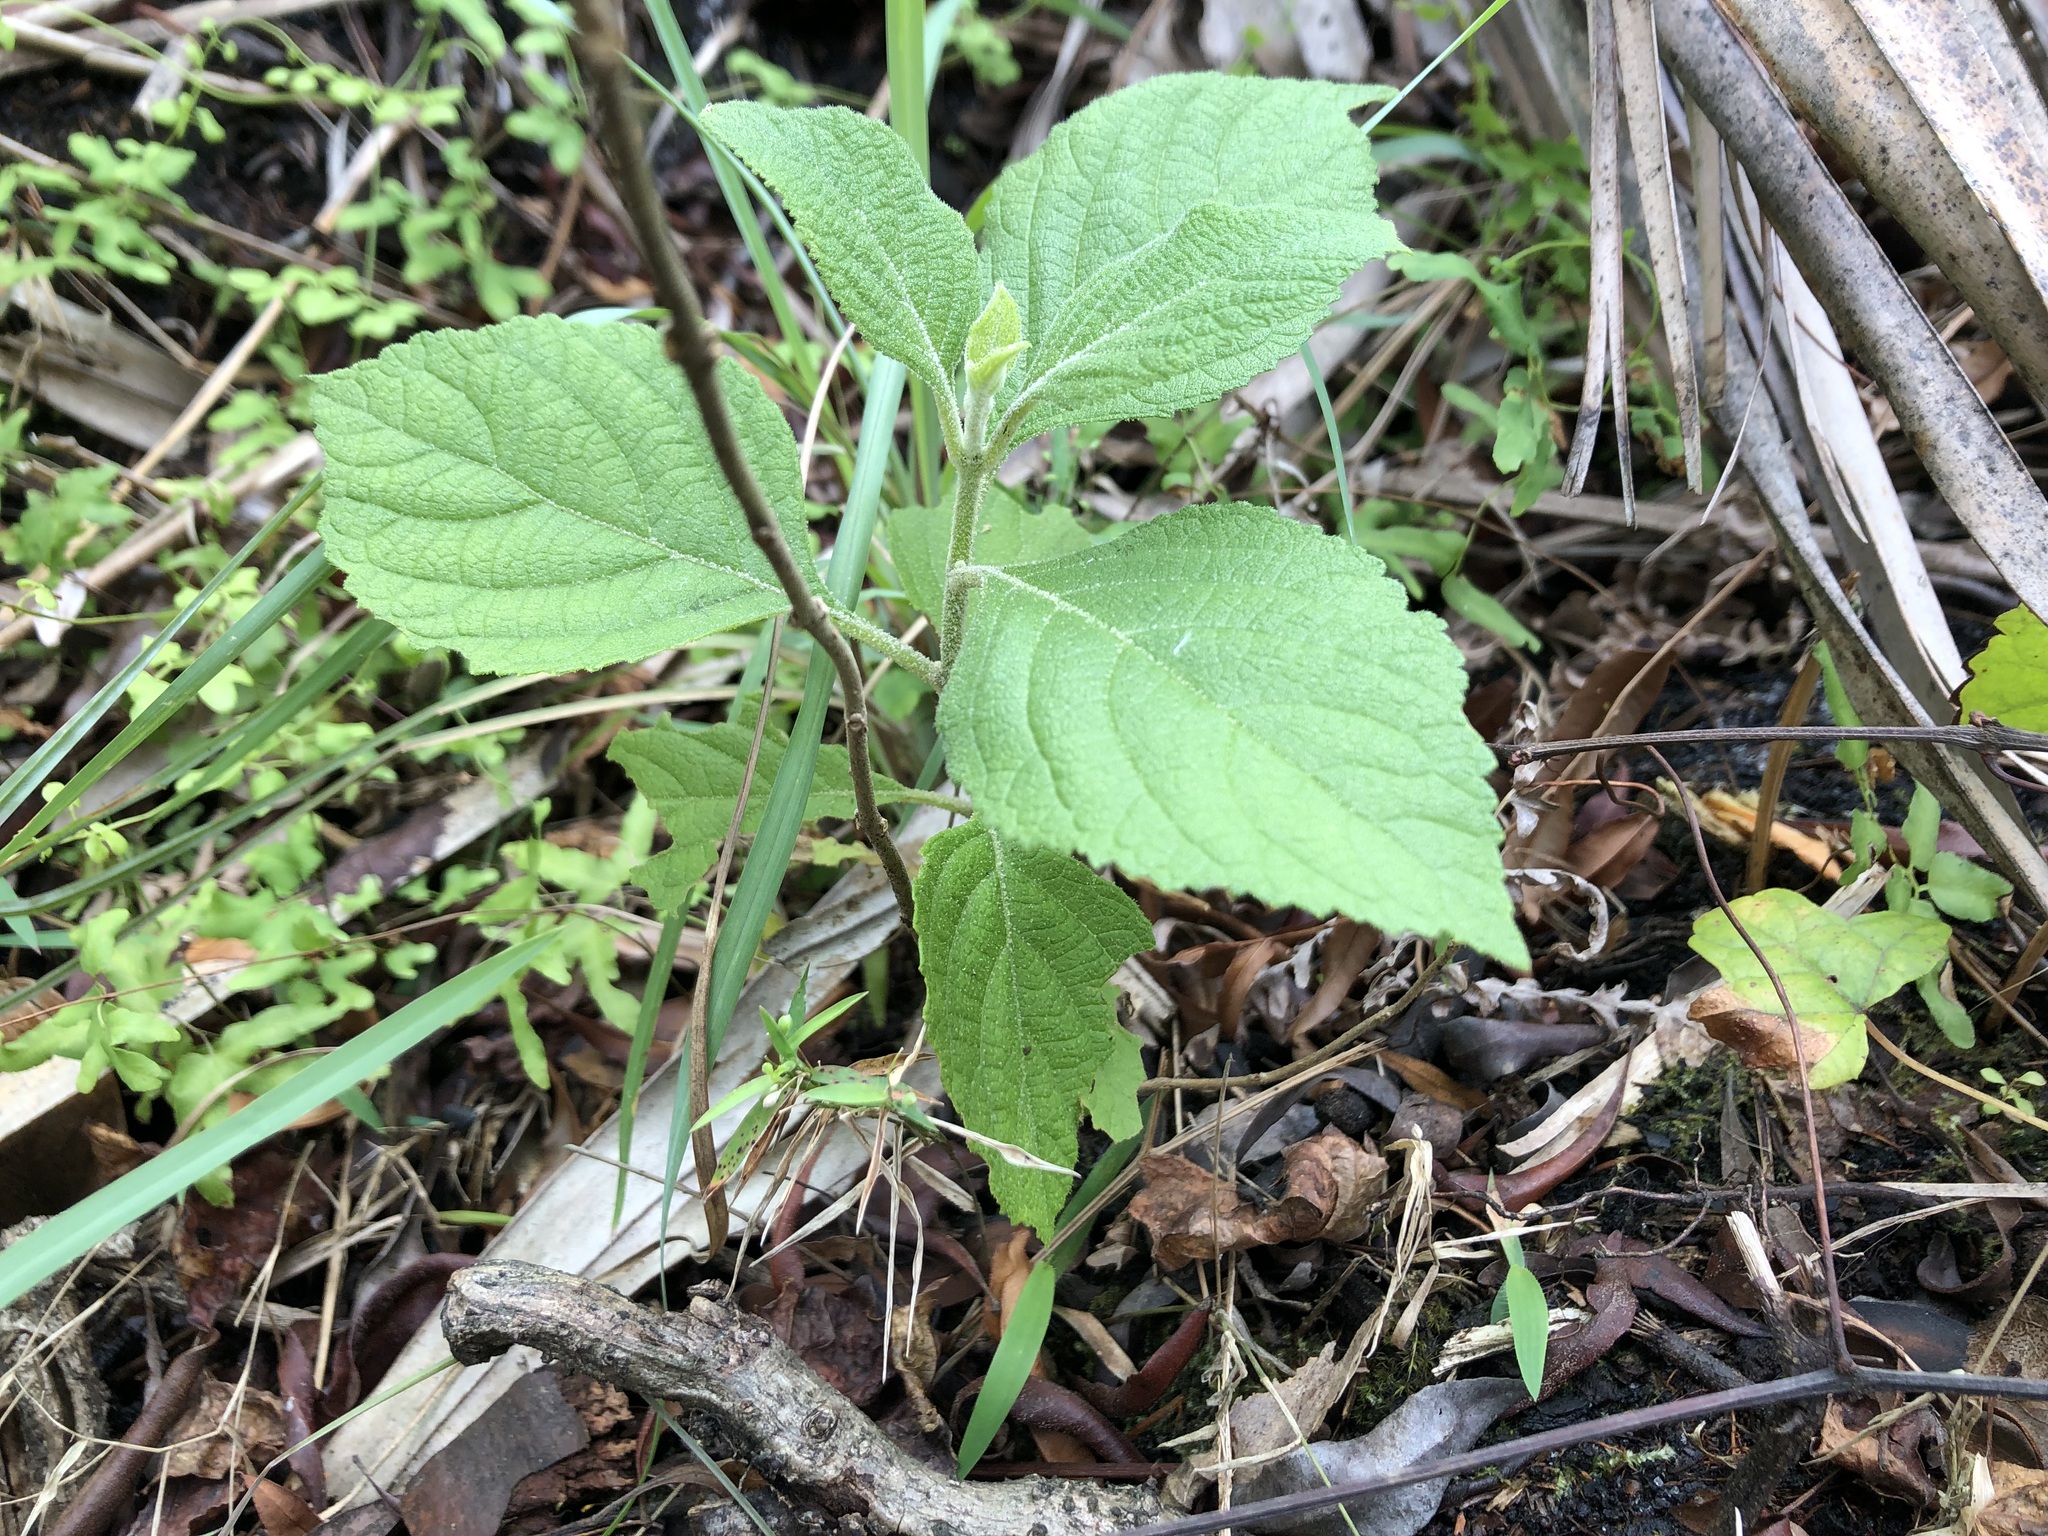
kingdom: Plantae
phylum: Tracheophyta
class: Magnoliopsida
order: Lamiales
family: Lamiaceae
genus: Callicarpa
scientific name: Callicarpa americana
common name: American beautyberry
